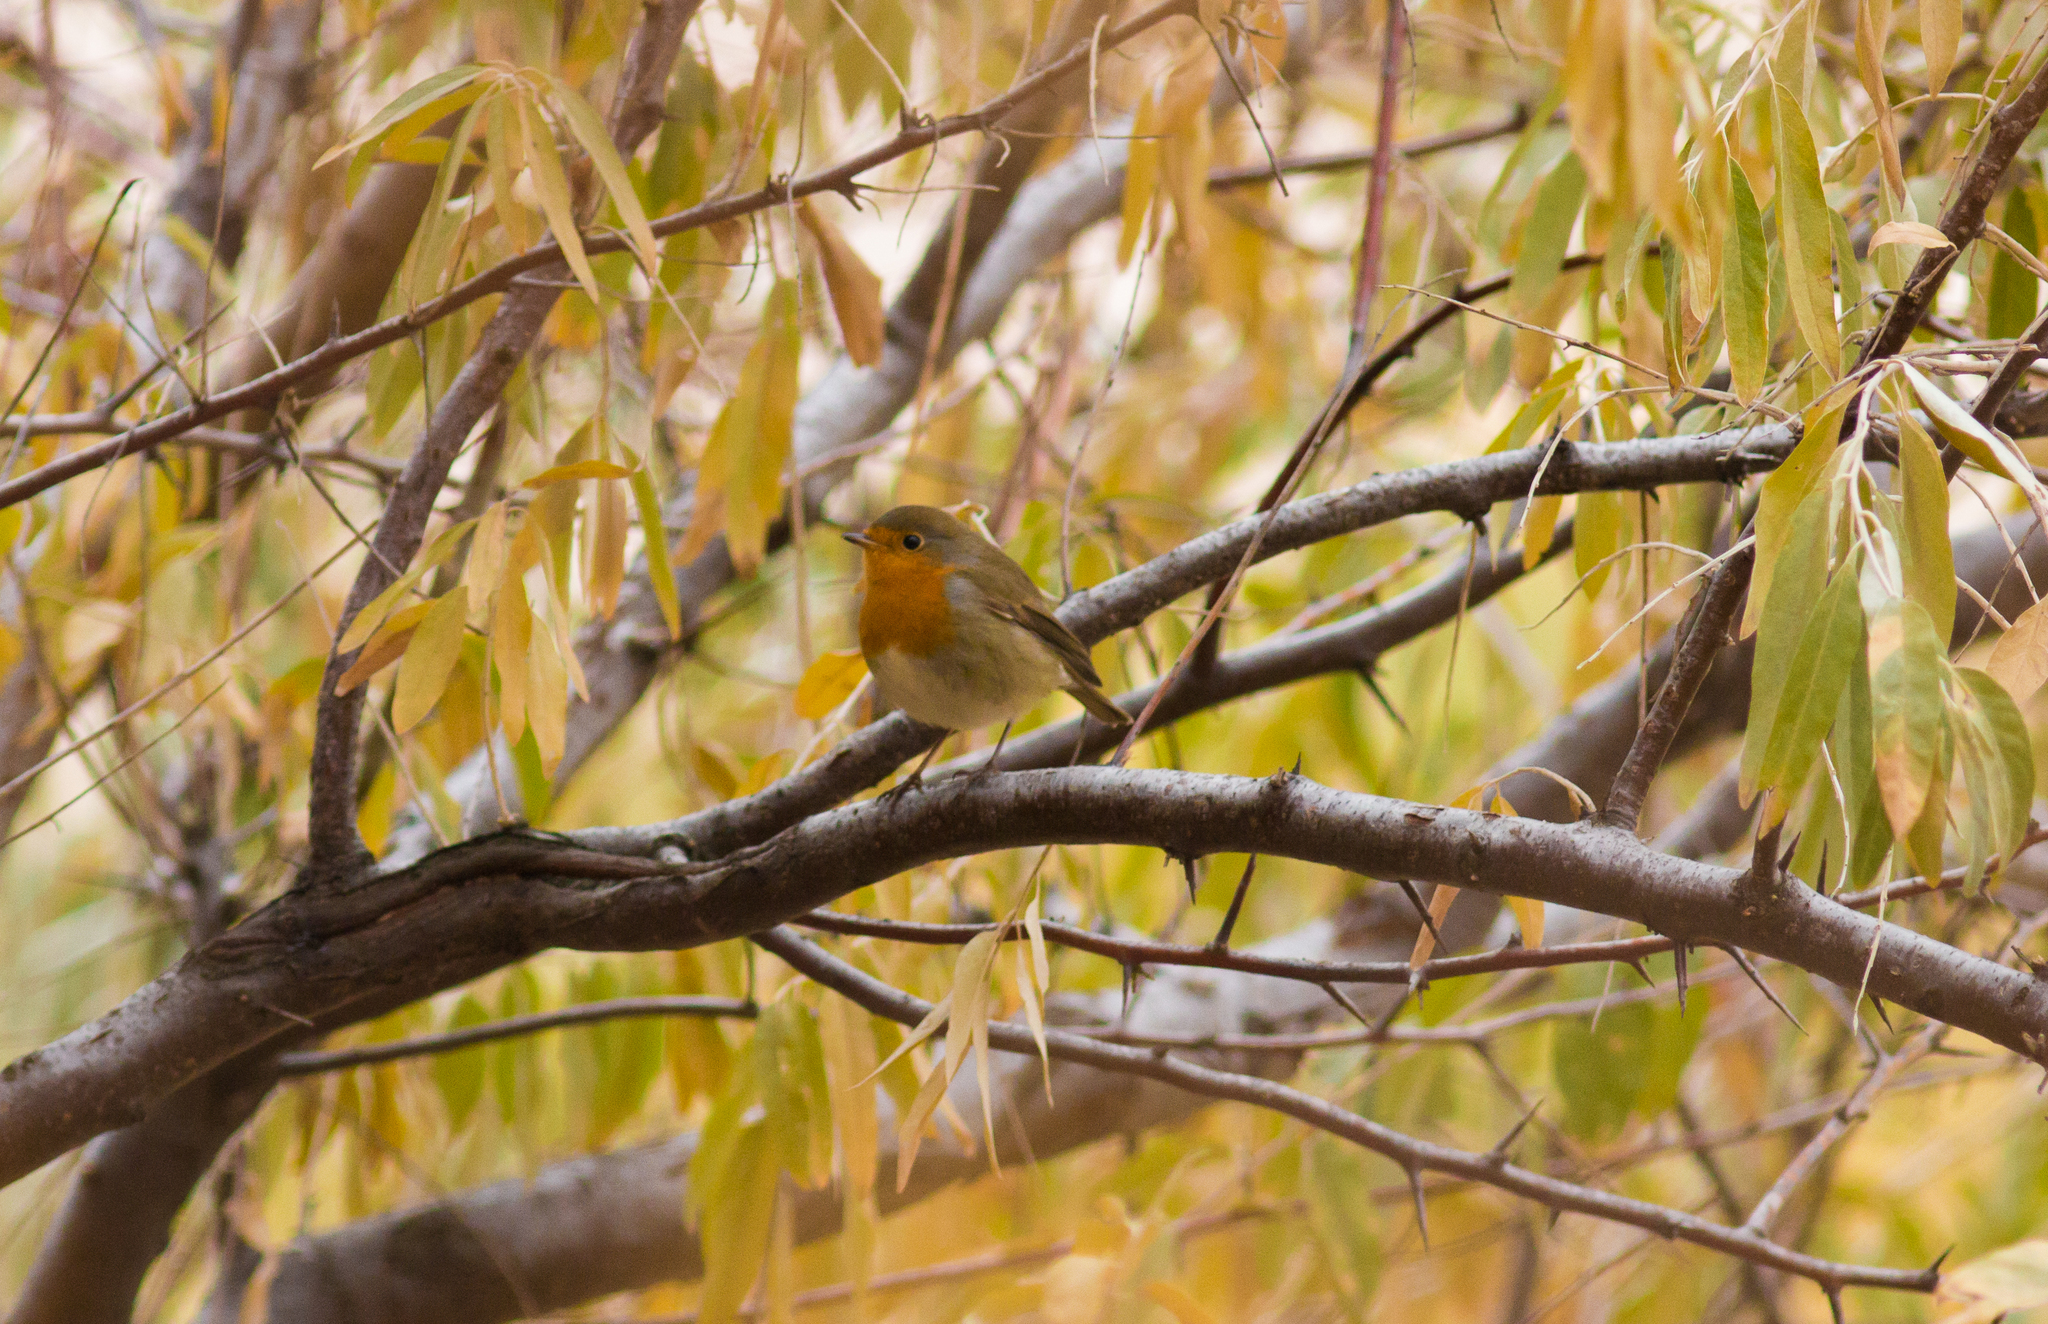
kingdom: Animalia
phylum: Chordata
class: Aves
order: Passeriformes
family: Muscicapidae
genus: Erithacus
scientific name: Erithacus rubecula
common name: European robin
